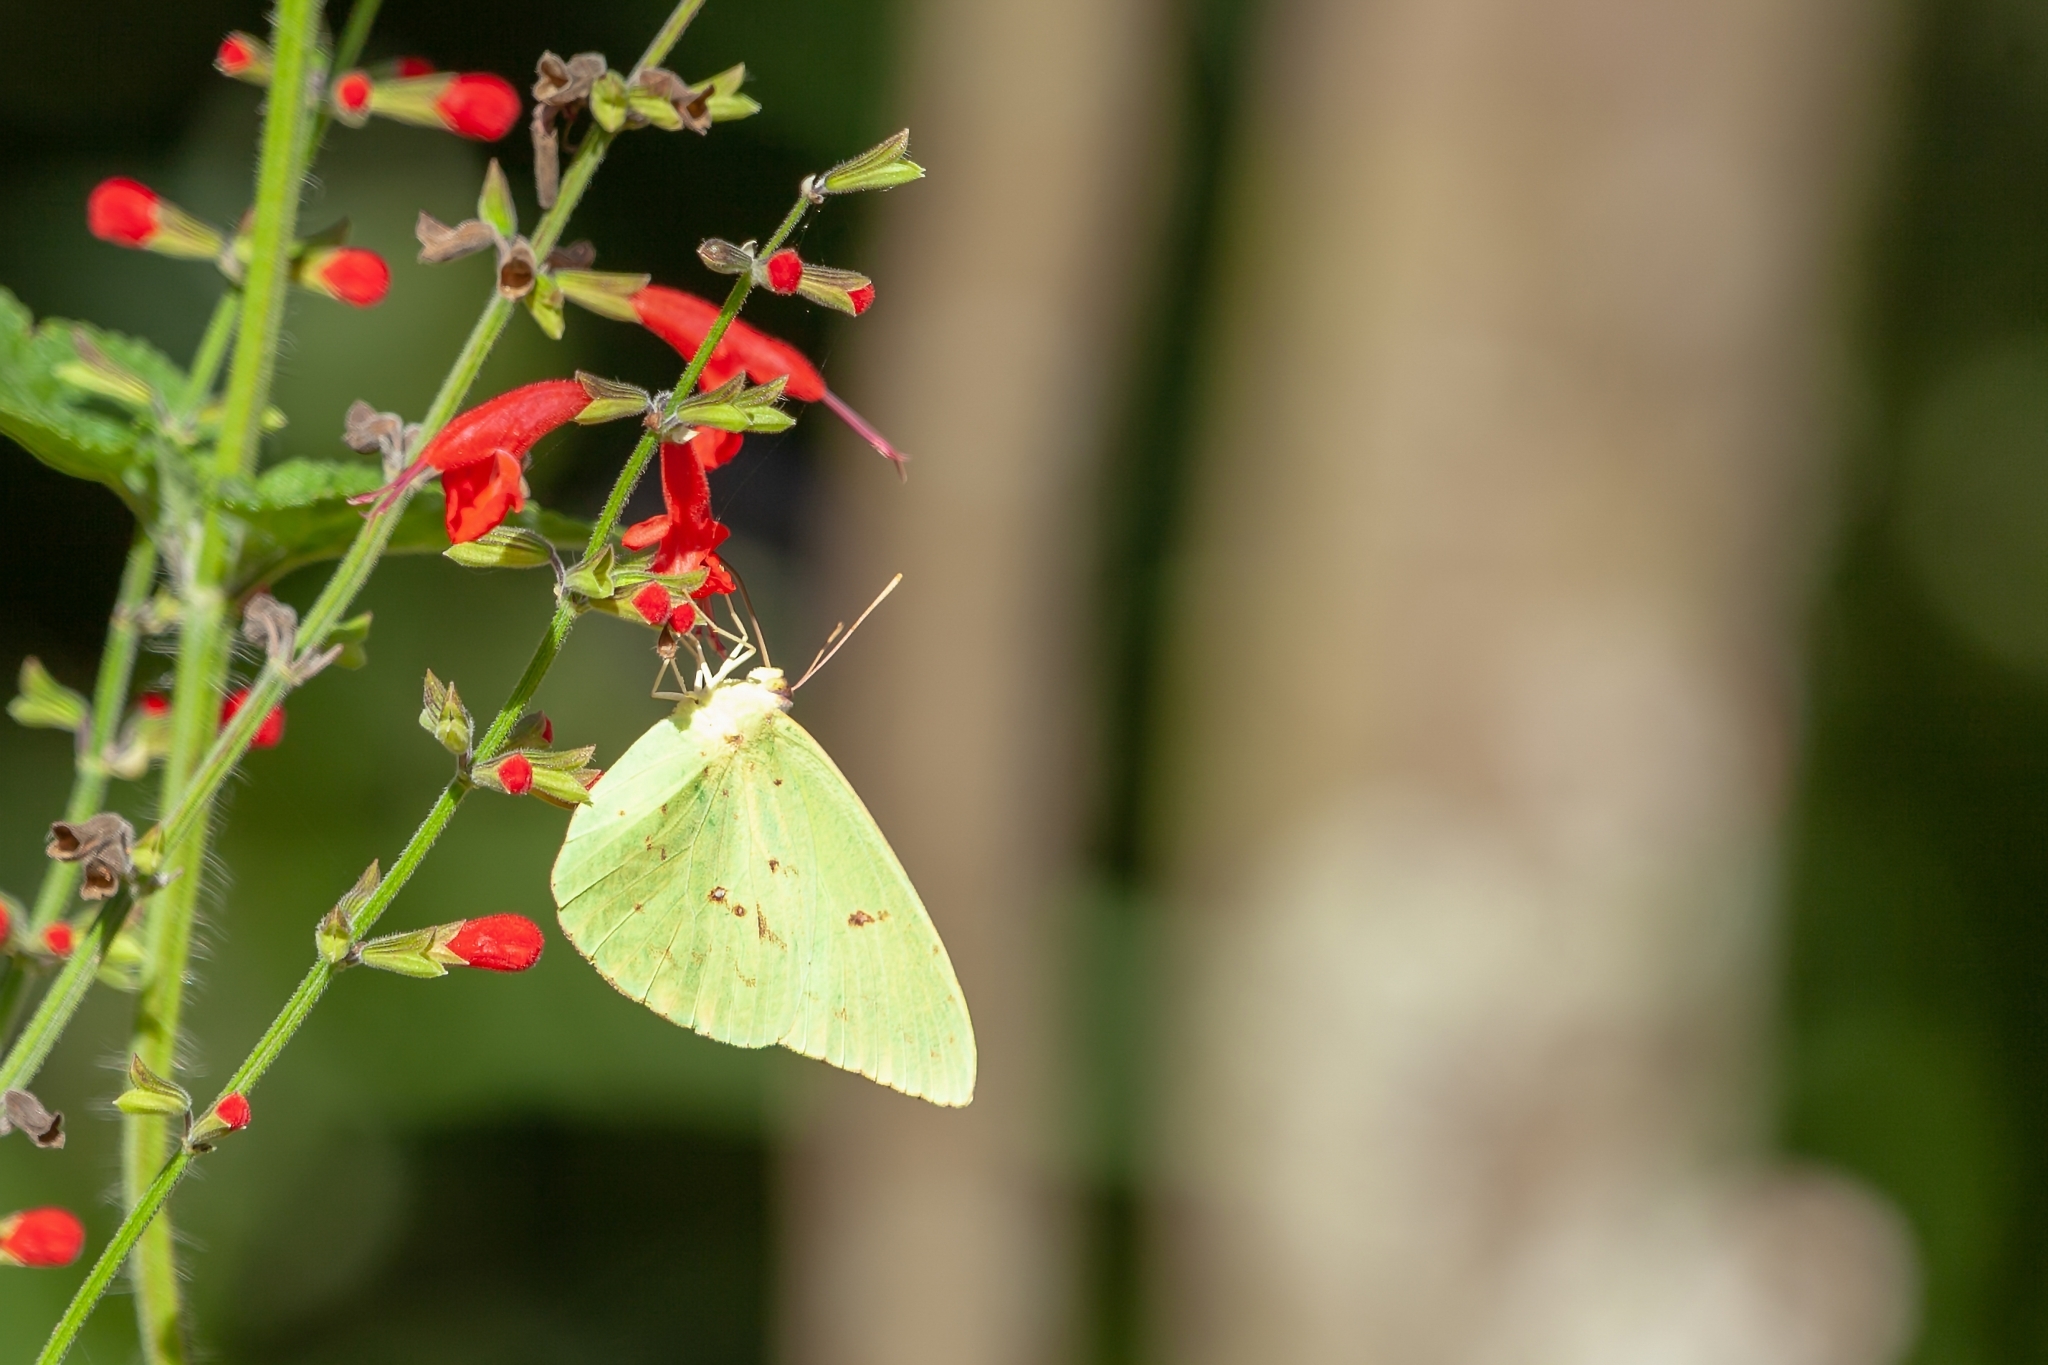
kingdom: Animalia
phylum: Arthropoda
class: Insecta
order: Lepidoptera
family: Pieridae
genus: Phoebis
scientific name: Phoebis sennae
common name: Cloudless sulphur
